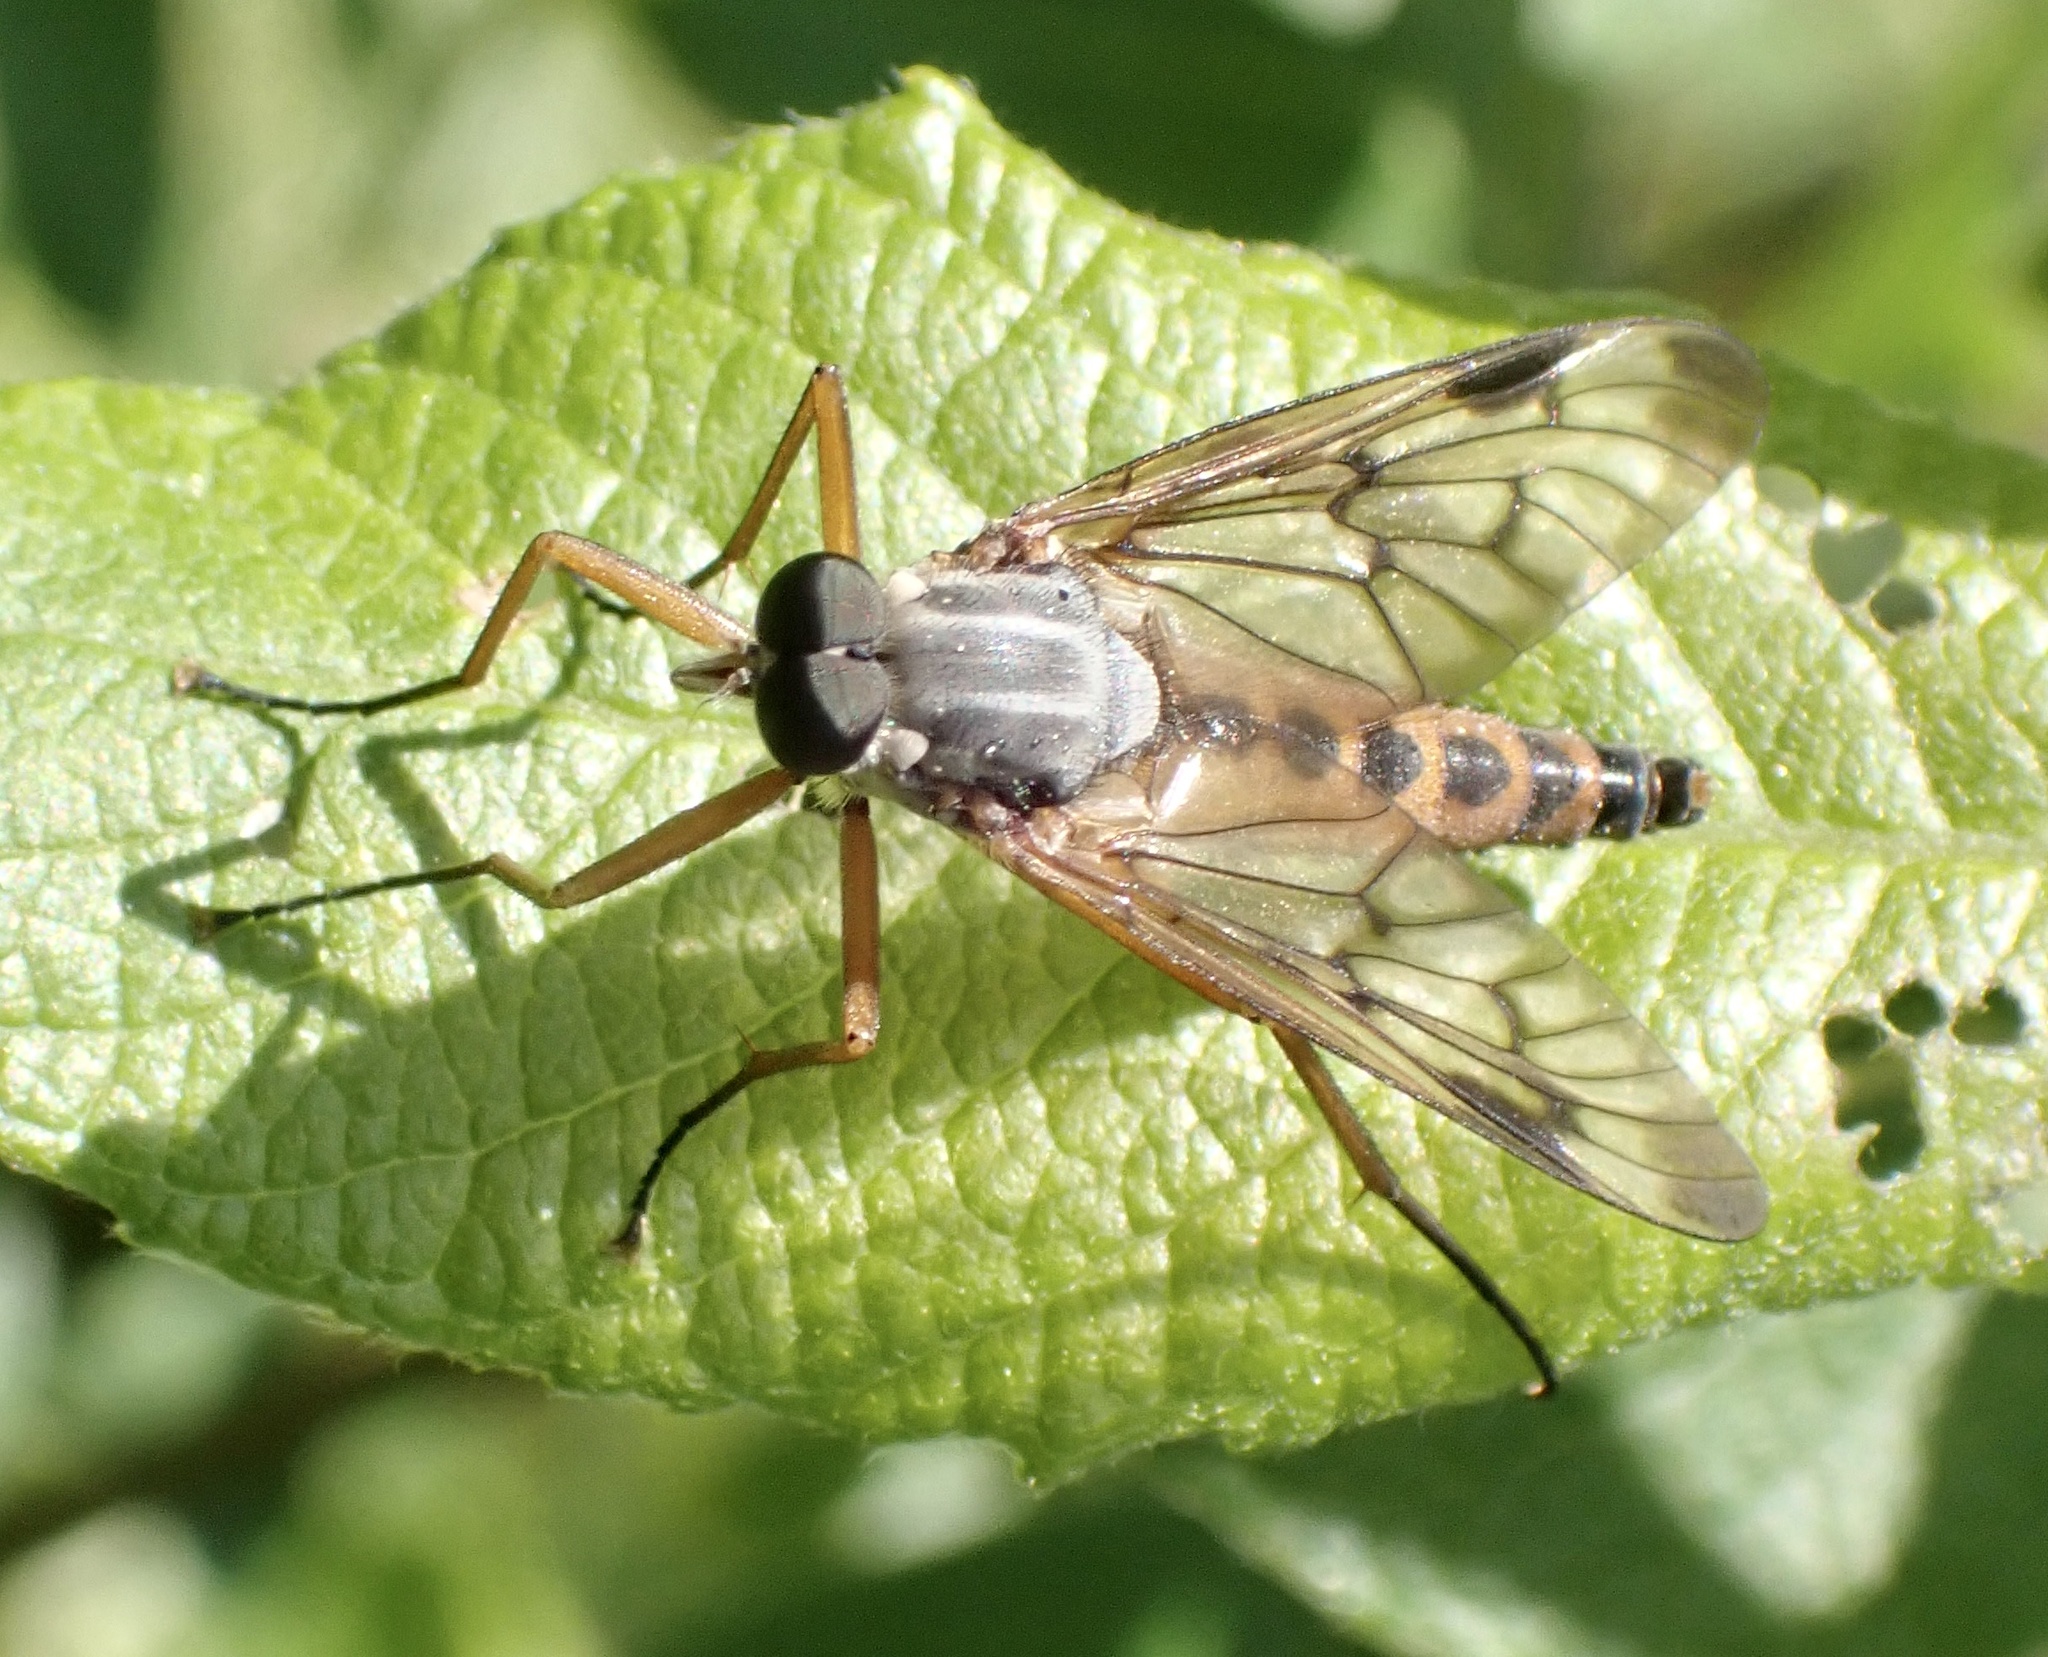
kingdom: Animalia
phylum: Arthropoda
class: Insecta
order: Diptera
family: Rhagionidae
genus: Rhagio
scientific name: Rhagio scolopacea
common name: Downlooker snipefly
